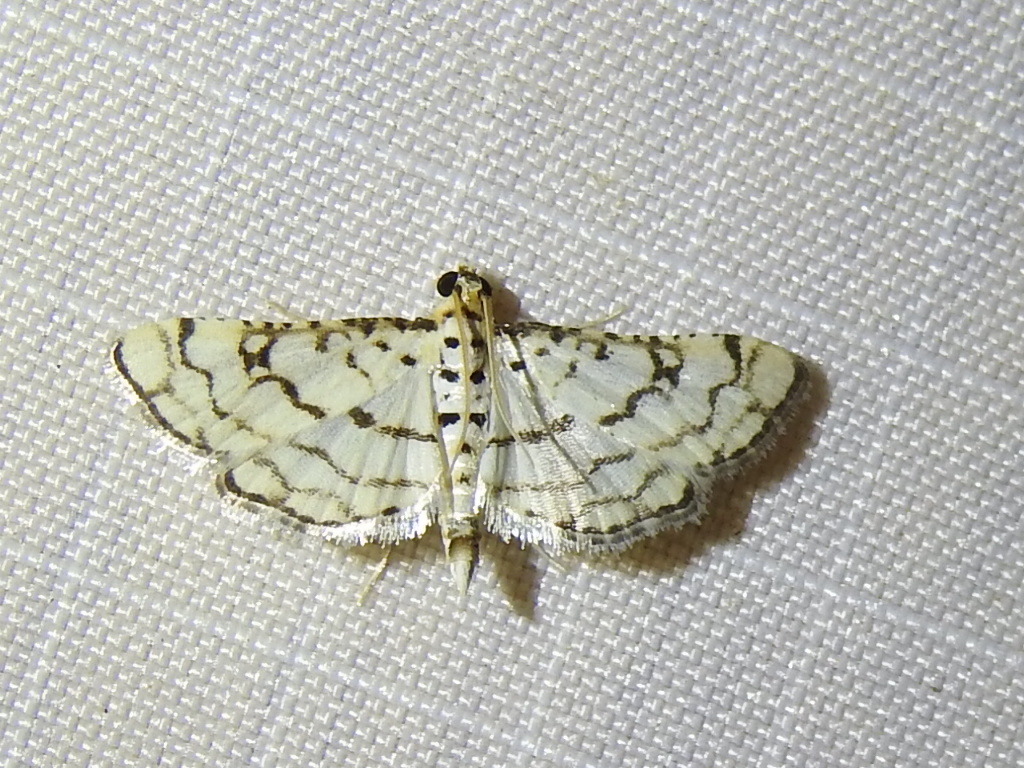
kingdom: Animalia
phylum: Arthropoda
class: Insecta
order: Lepidoptera
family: Crambidae
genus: Hileithia
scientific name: Hileithia rehamalis
